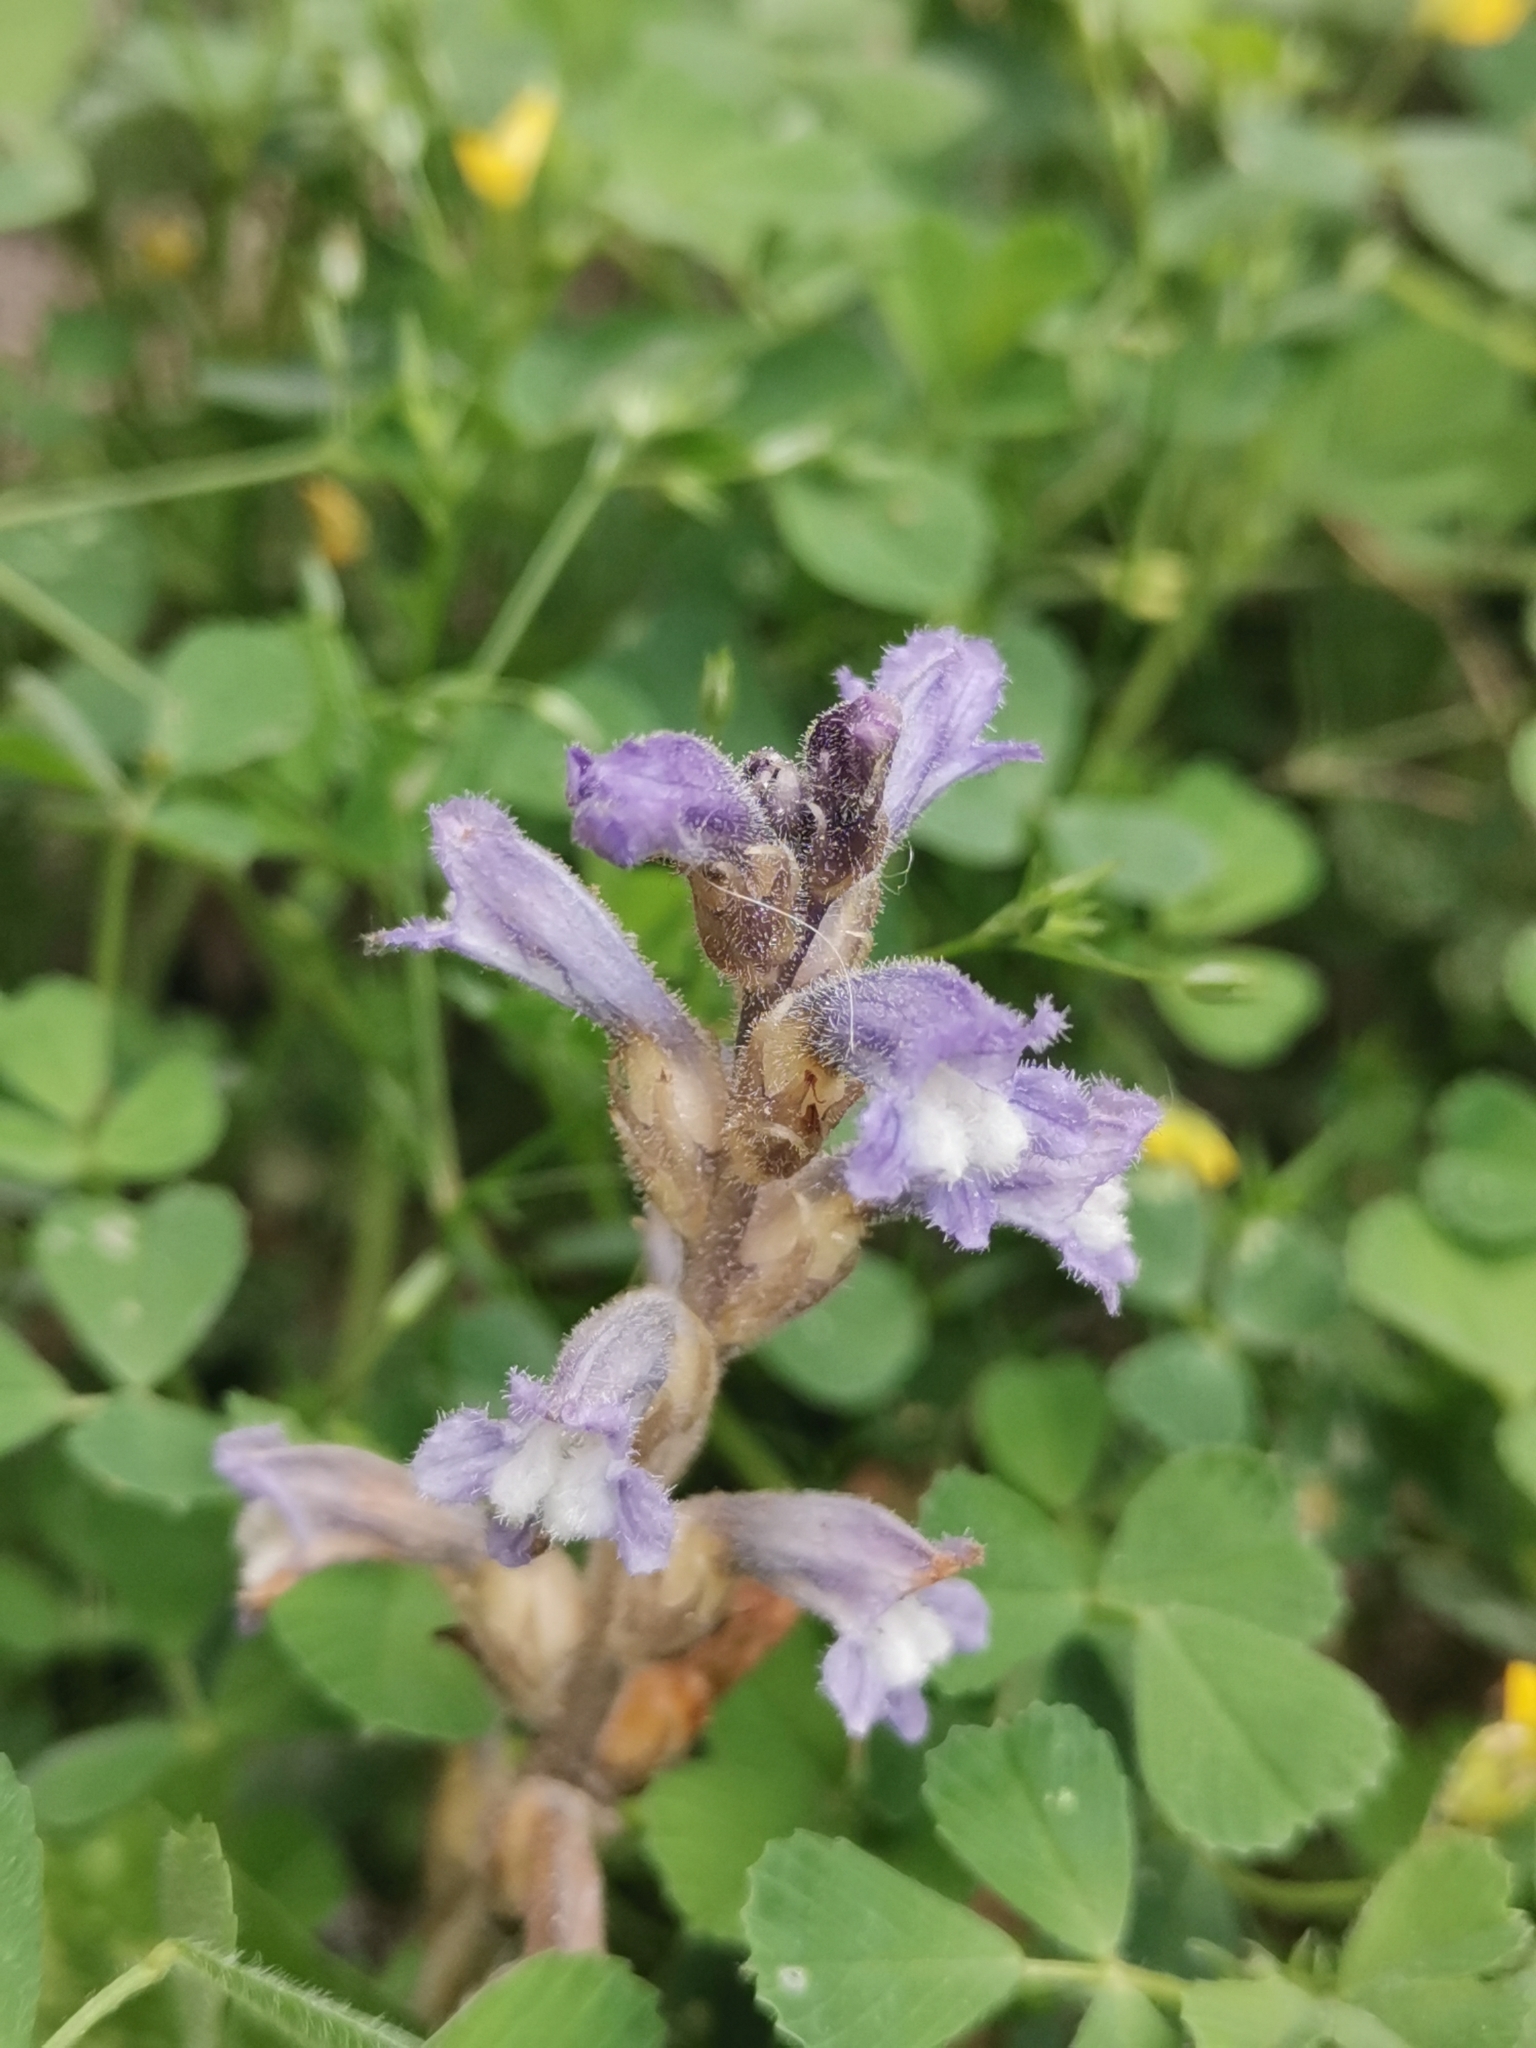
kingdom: Plantae
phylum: Tracheophyta
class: Magnoliopsida
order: Lamiales
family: Orobanchaceae
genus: Phelipanche
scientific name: Phelipanche mutelii
